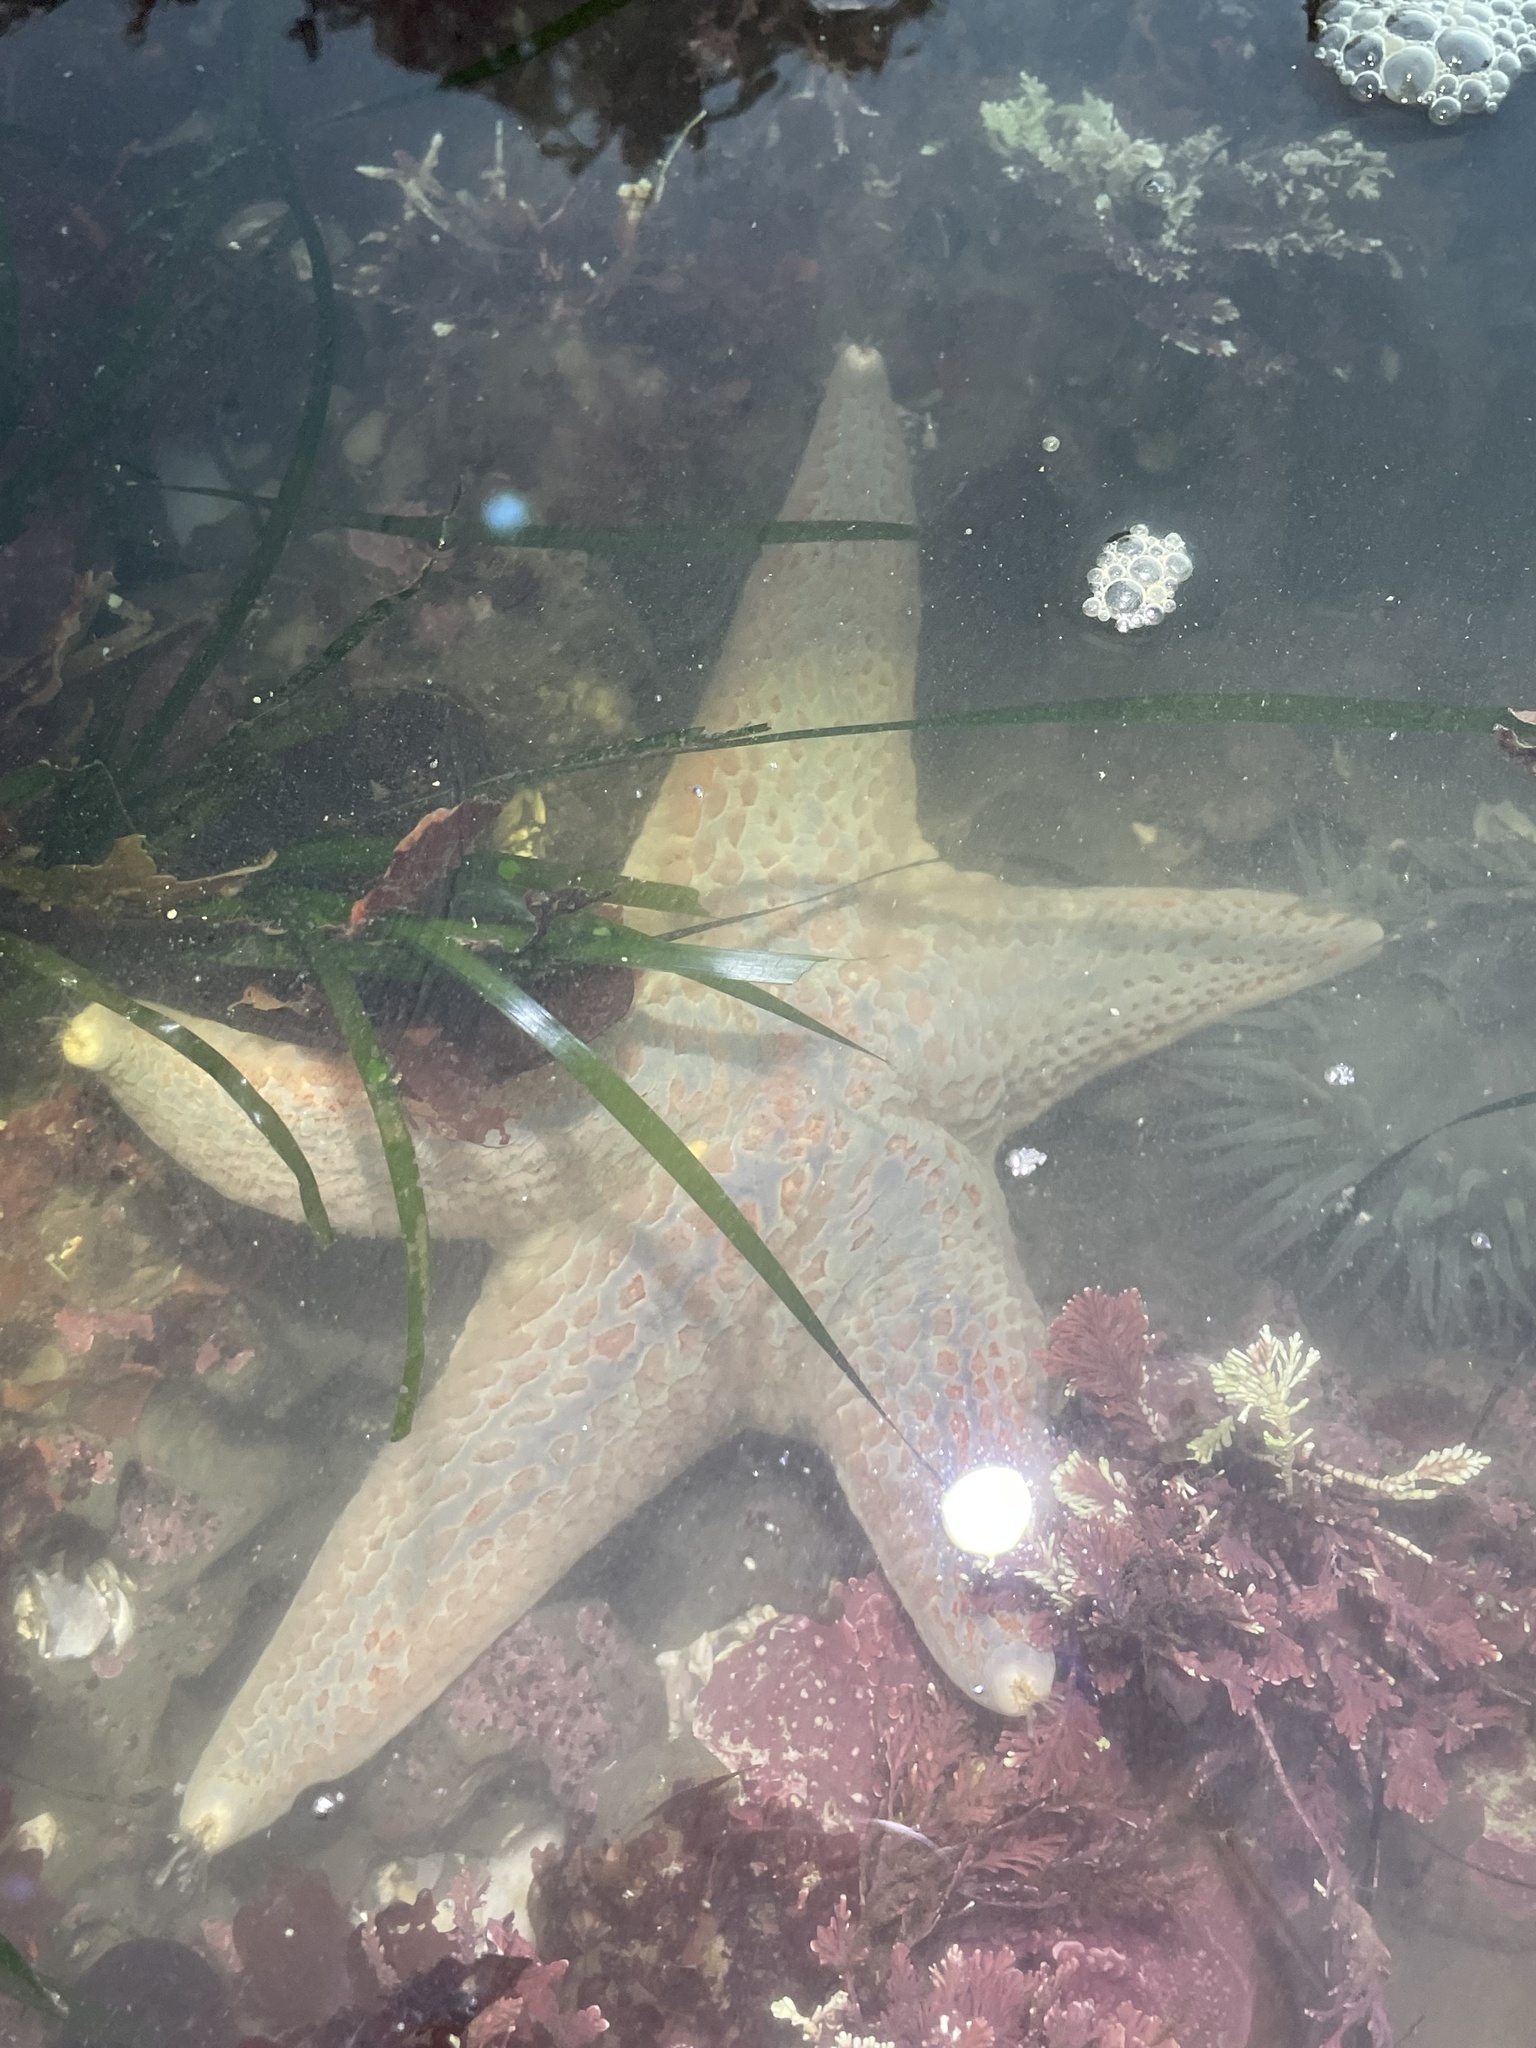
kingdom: Animalia
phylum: Echinodermata
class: Asteroidea
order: Valvatida
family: Asteropseidae
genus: Dermasterias
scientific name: Dermasterias imbricata
